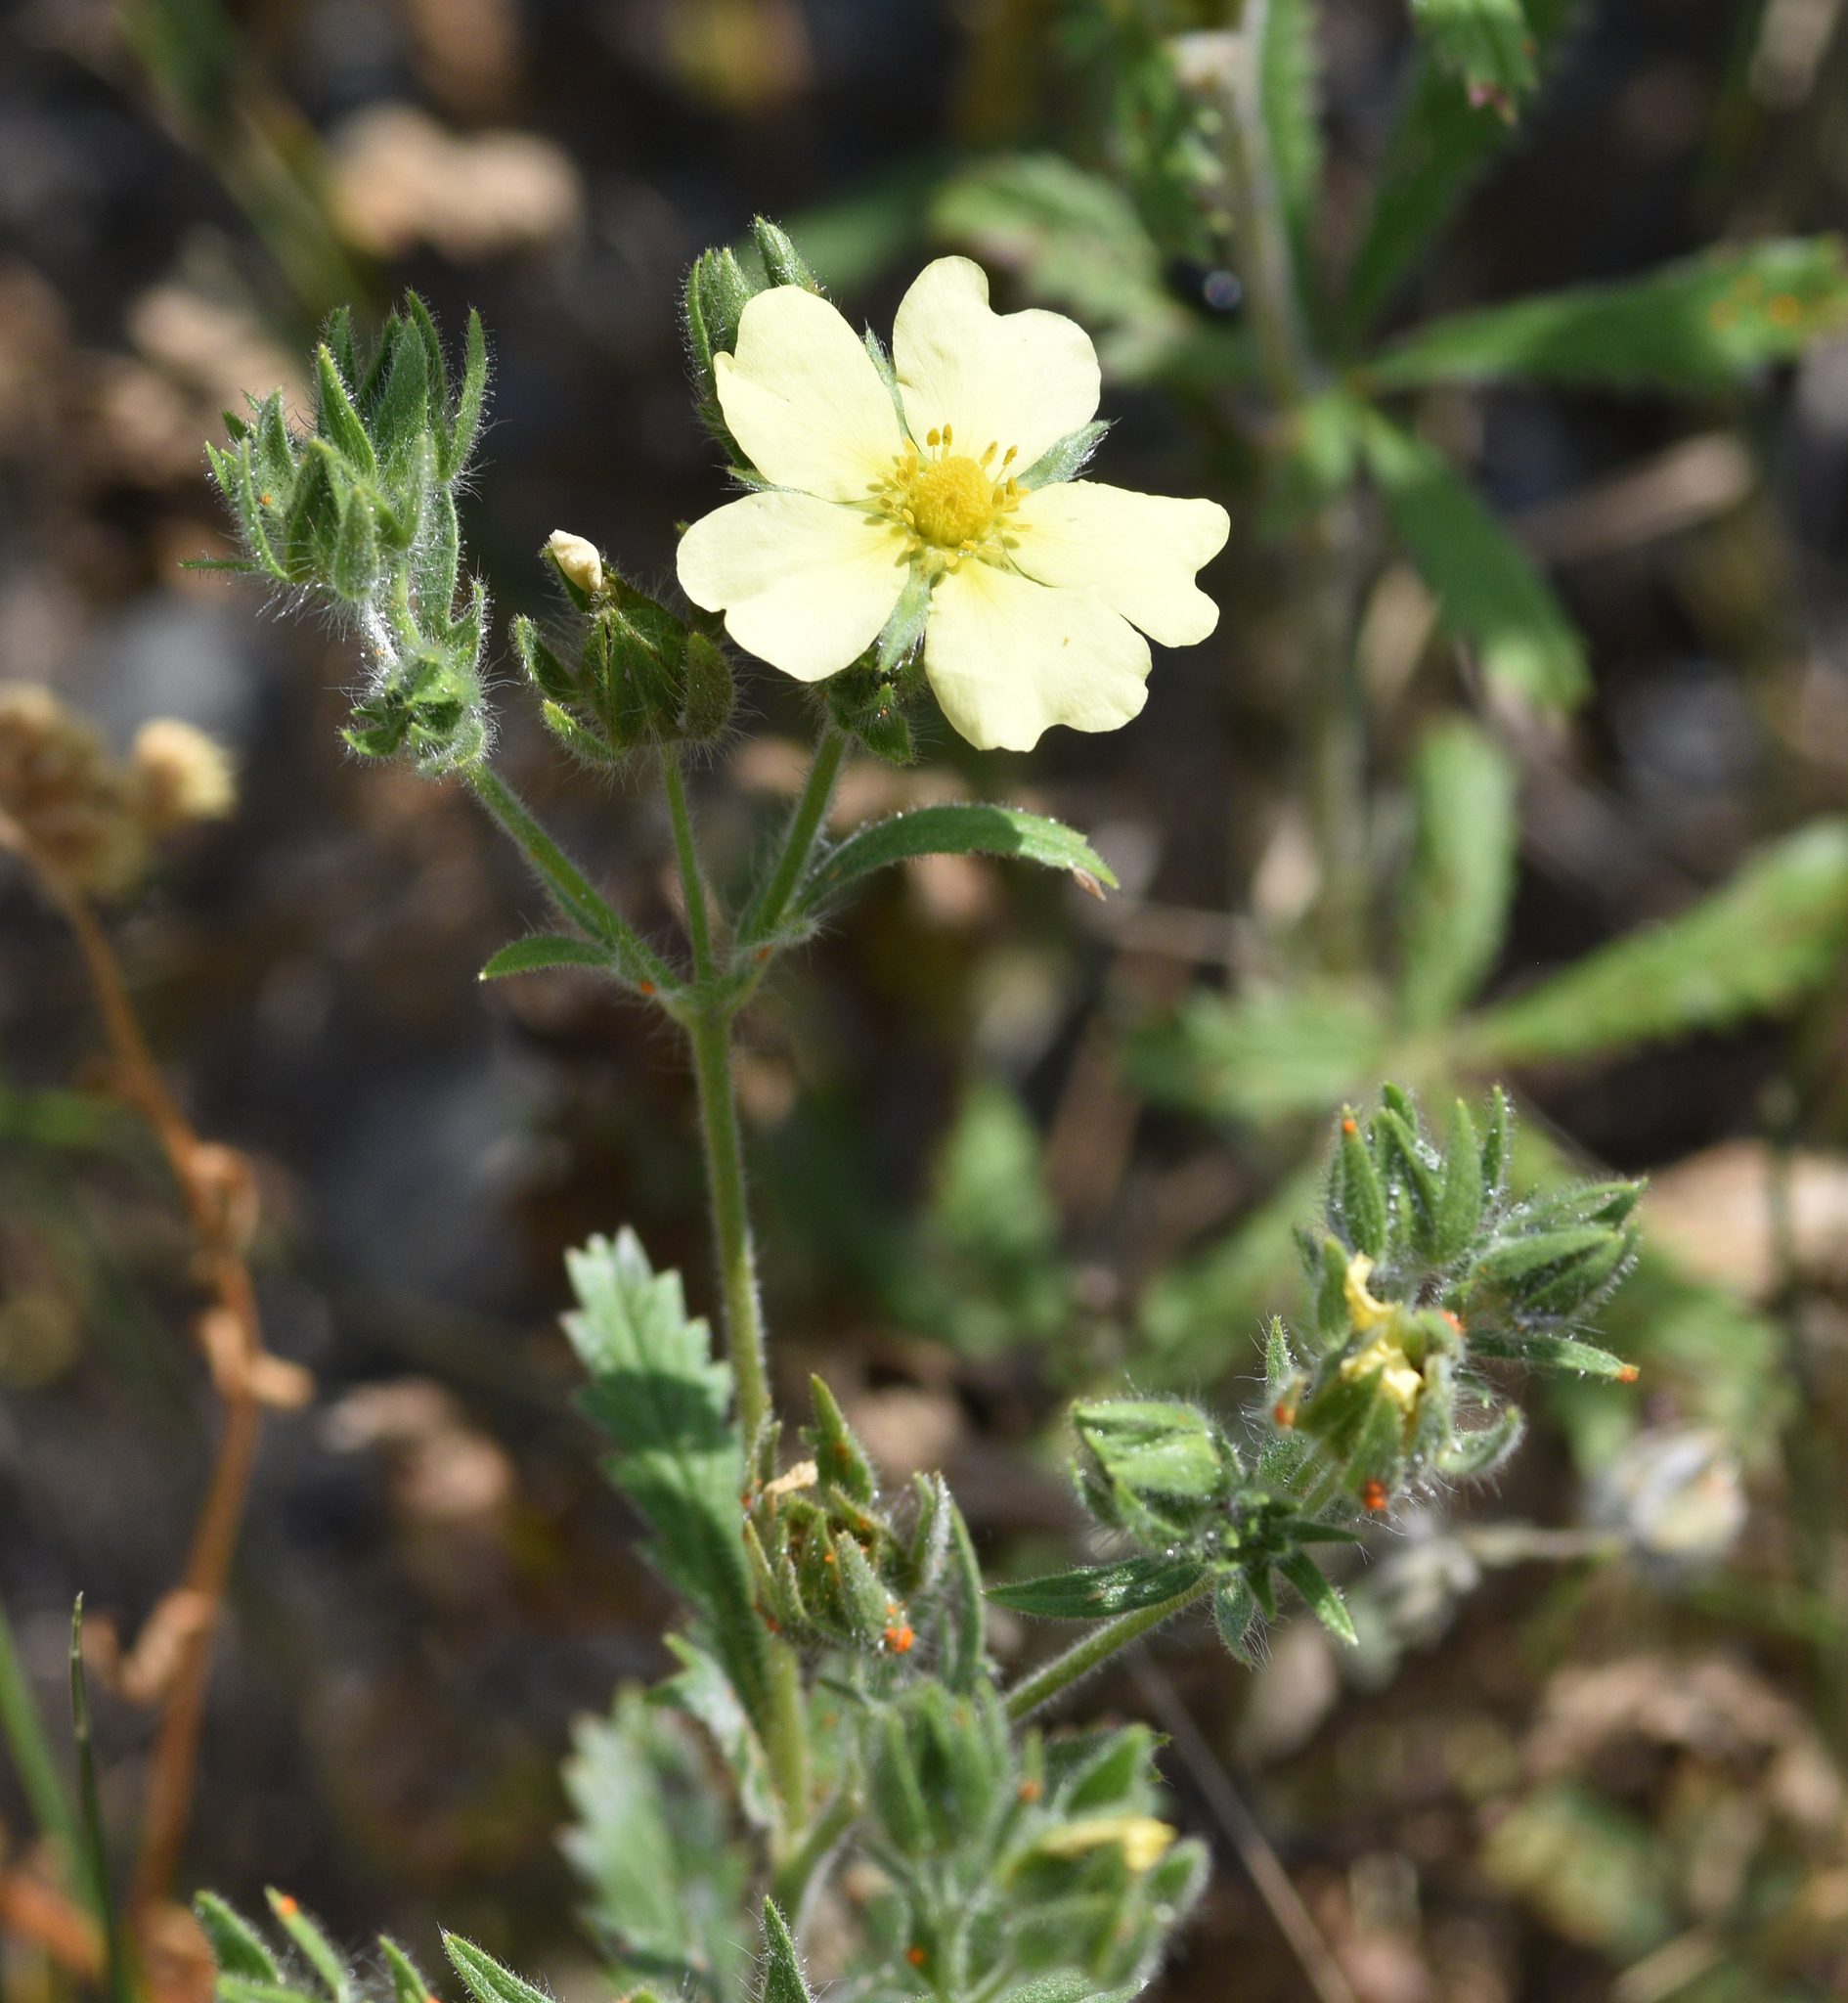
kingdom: Plantae
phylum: Tracheophyta
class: Magnoliopsida
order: Rosales
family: Rosaceae
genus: Potentilla
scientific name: Potentilla recta
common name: Sulphur cinquefoil
